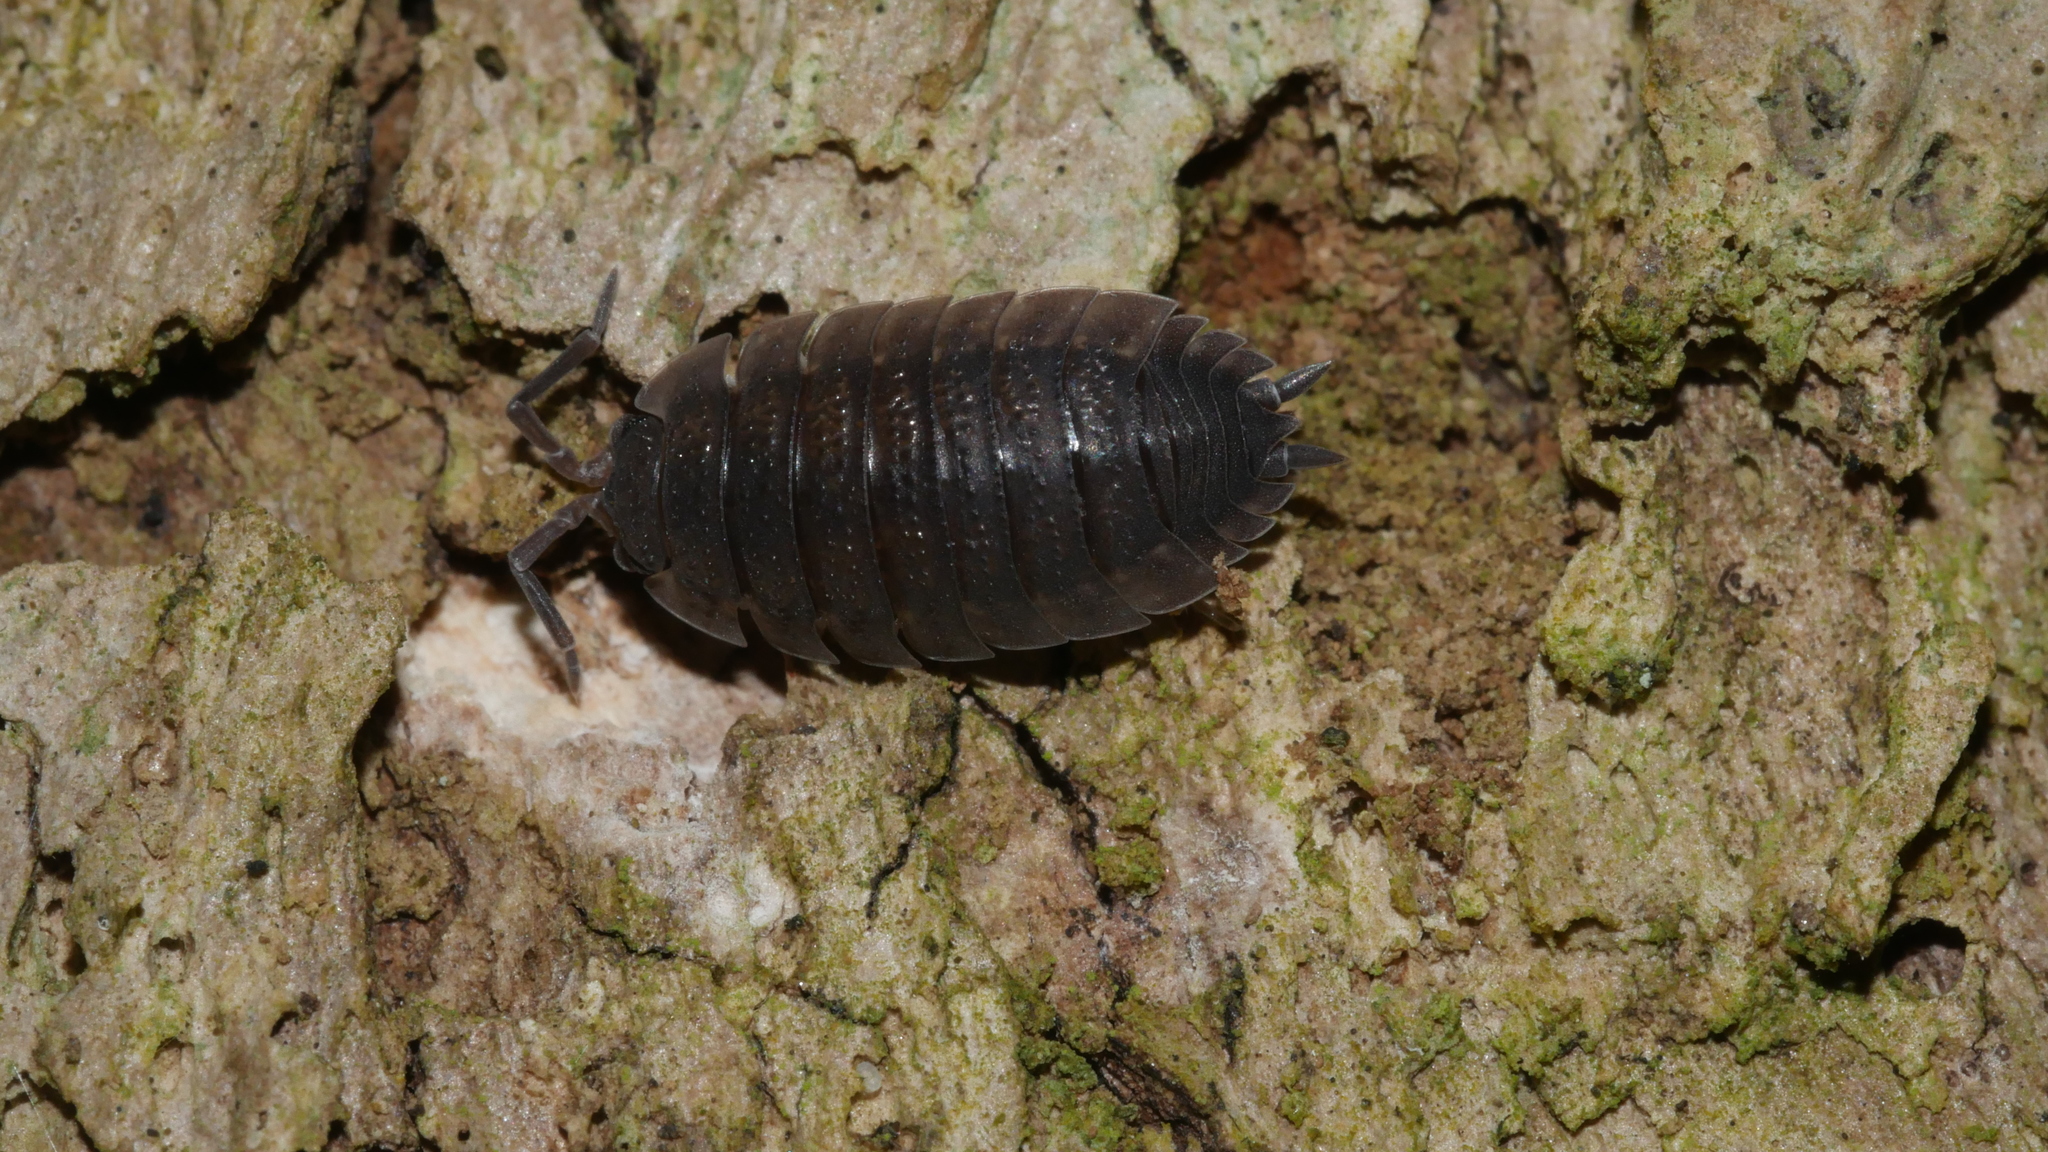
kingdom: Animalia
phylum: Arthropoda
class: Malacostraca
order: Isopoda
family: Porcellionidae
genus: Porcellio
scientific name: Porcellio scaber
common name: Common rough woodlouse
